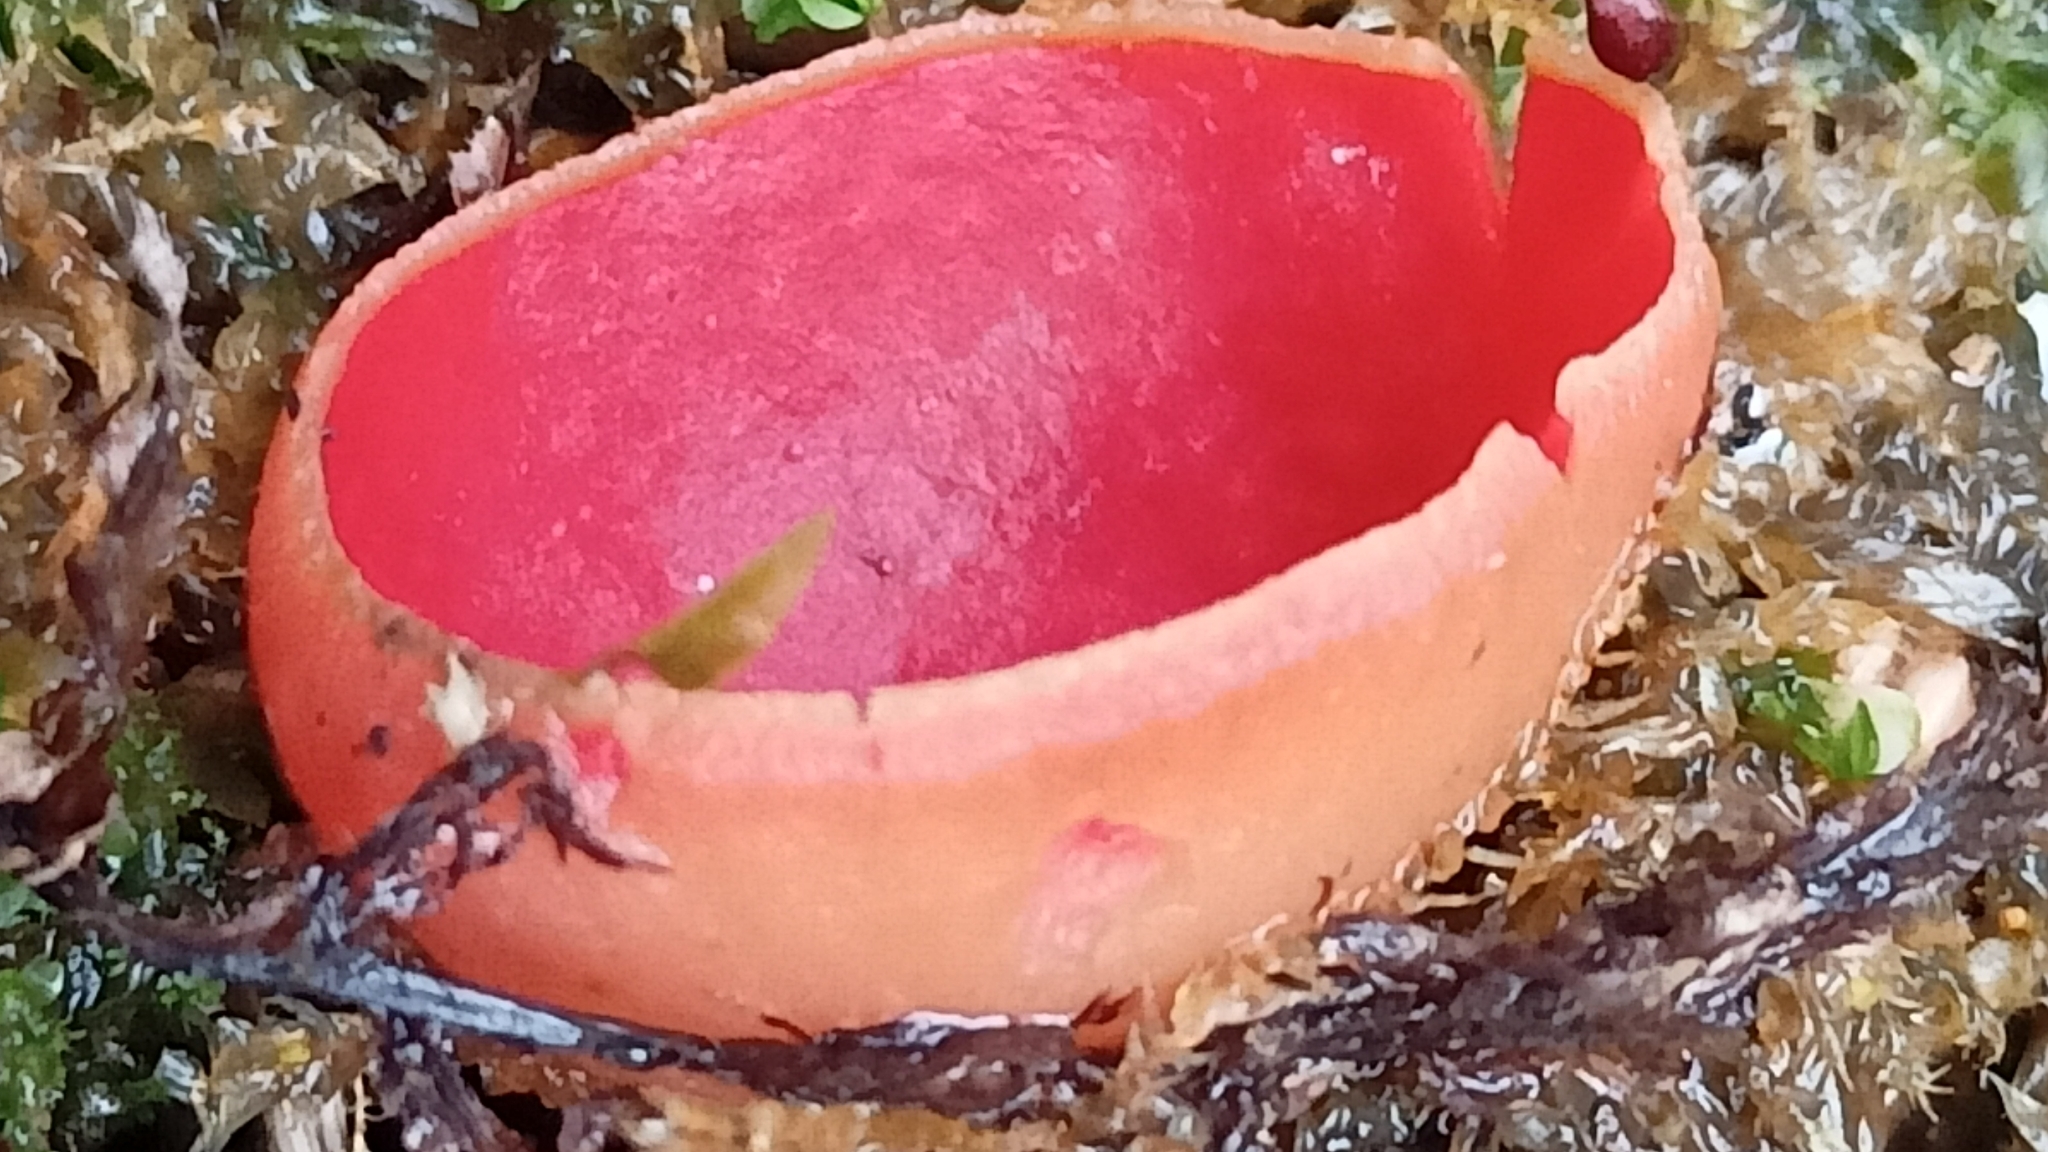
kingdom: Fungi
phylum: Ascomycota
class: Pezizomycetes
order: Pezizales
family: Sarcoscyphaceae
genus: Sarcoscypha
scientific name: Sarcoscypha
